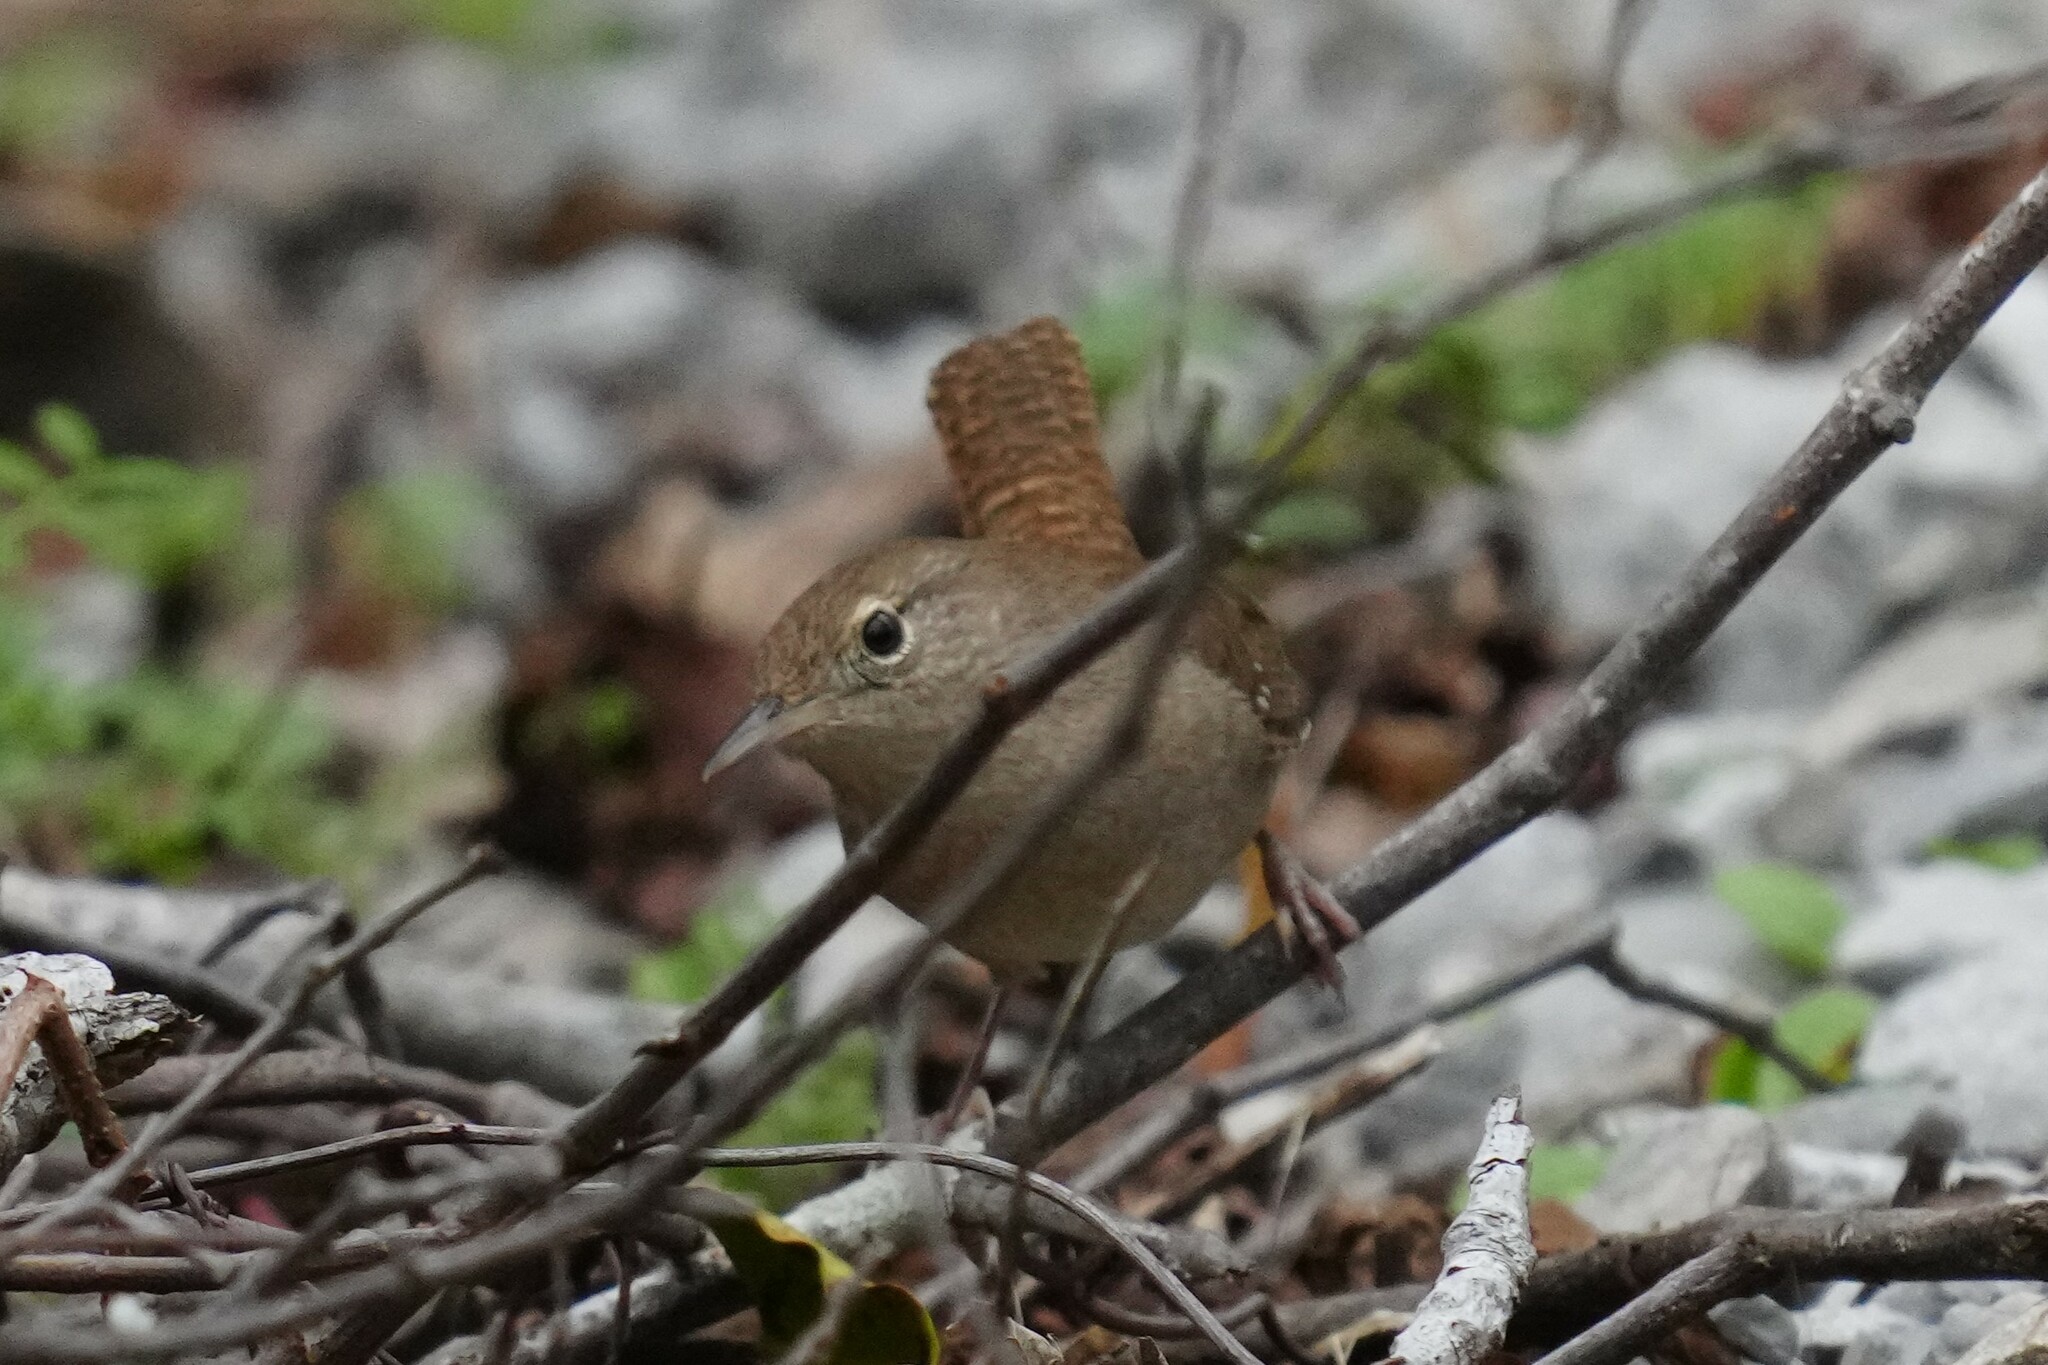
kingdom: Animalia
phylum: Chordata
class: Aves
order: Passeriformes
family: Troglodytidae
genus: Troglodytes
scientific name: Troglodytes aedon
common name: House wren
